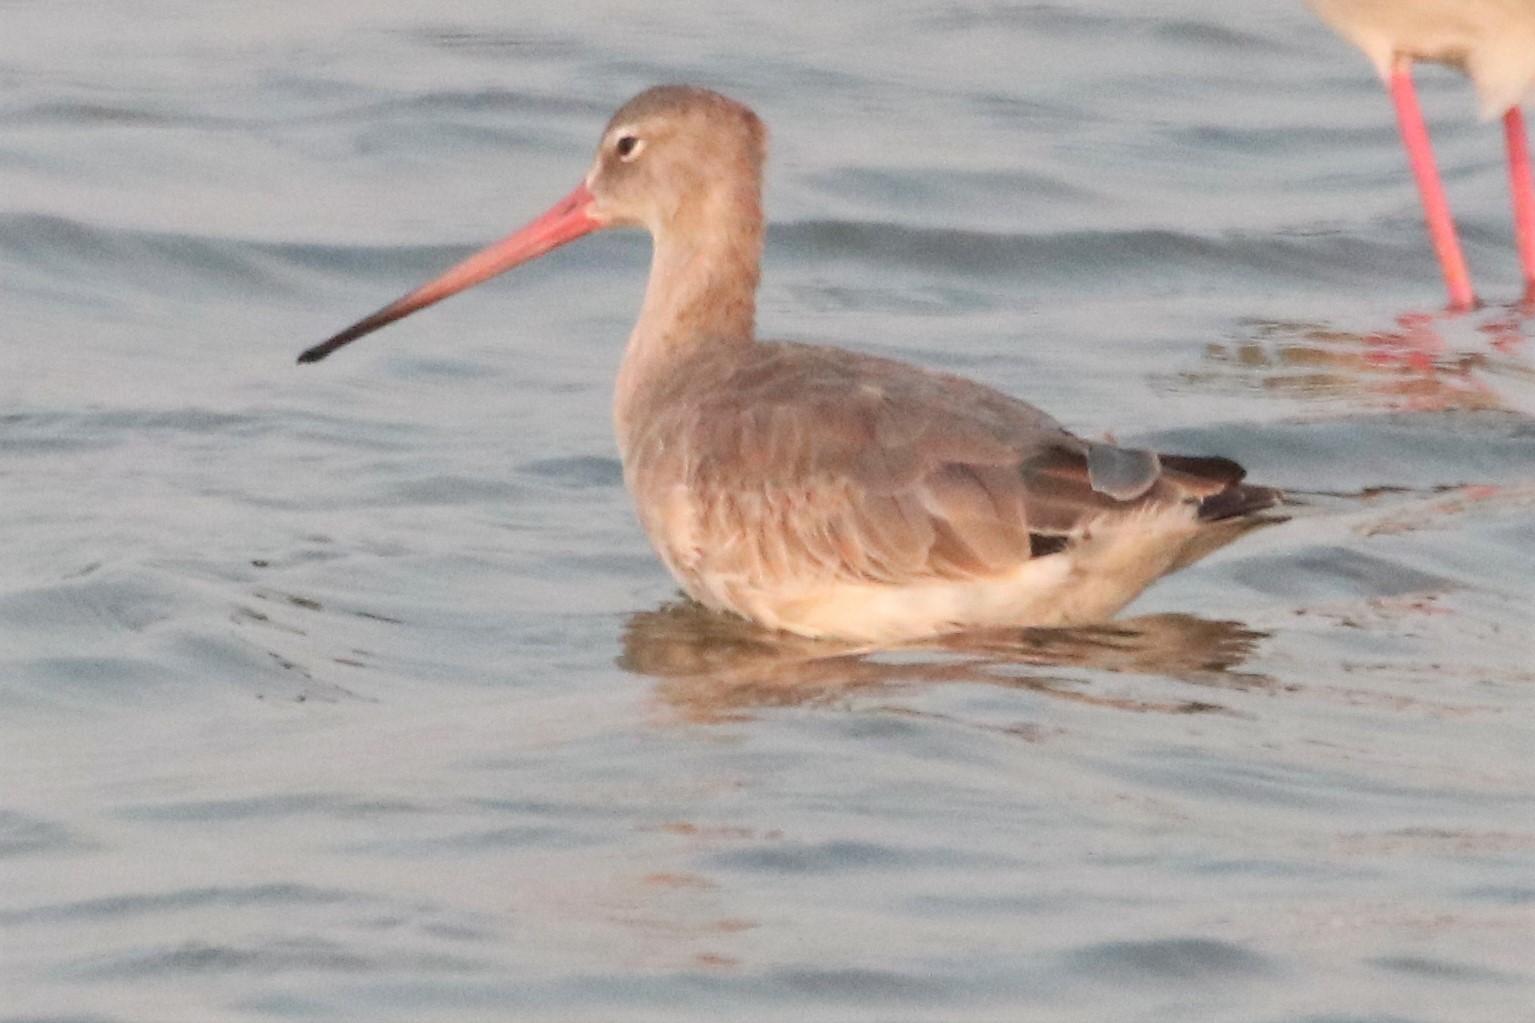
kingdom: Animalia
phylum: Chordata
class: Aves
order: Charadriiformes
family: Scolopacidae
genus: Limosa
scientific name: Limosa limosa
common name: Black-tailed godwit
